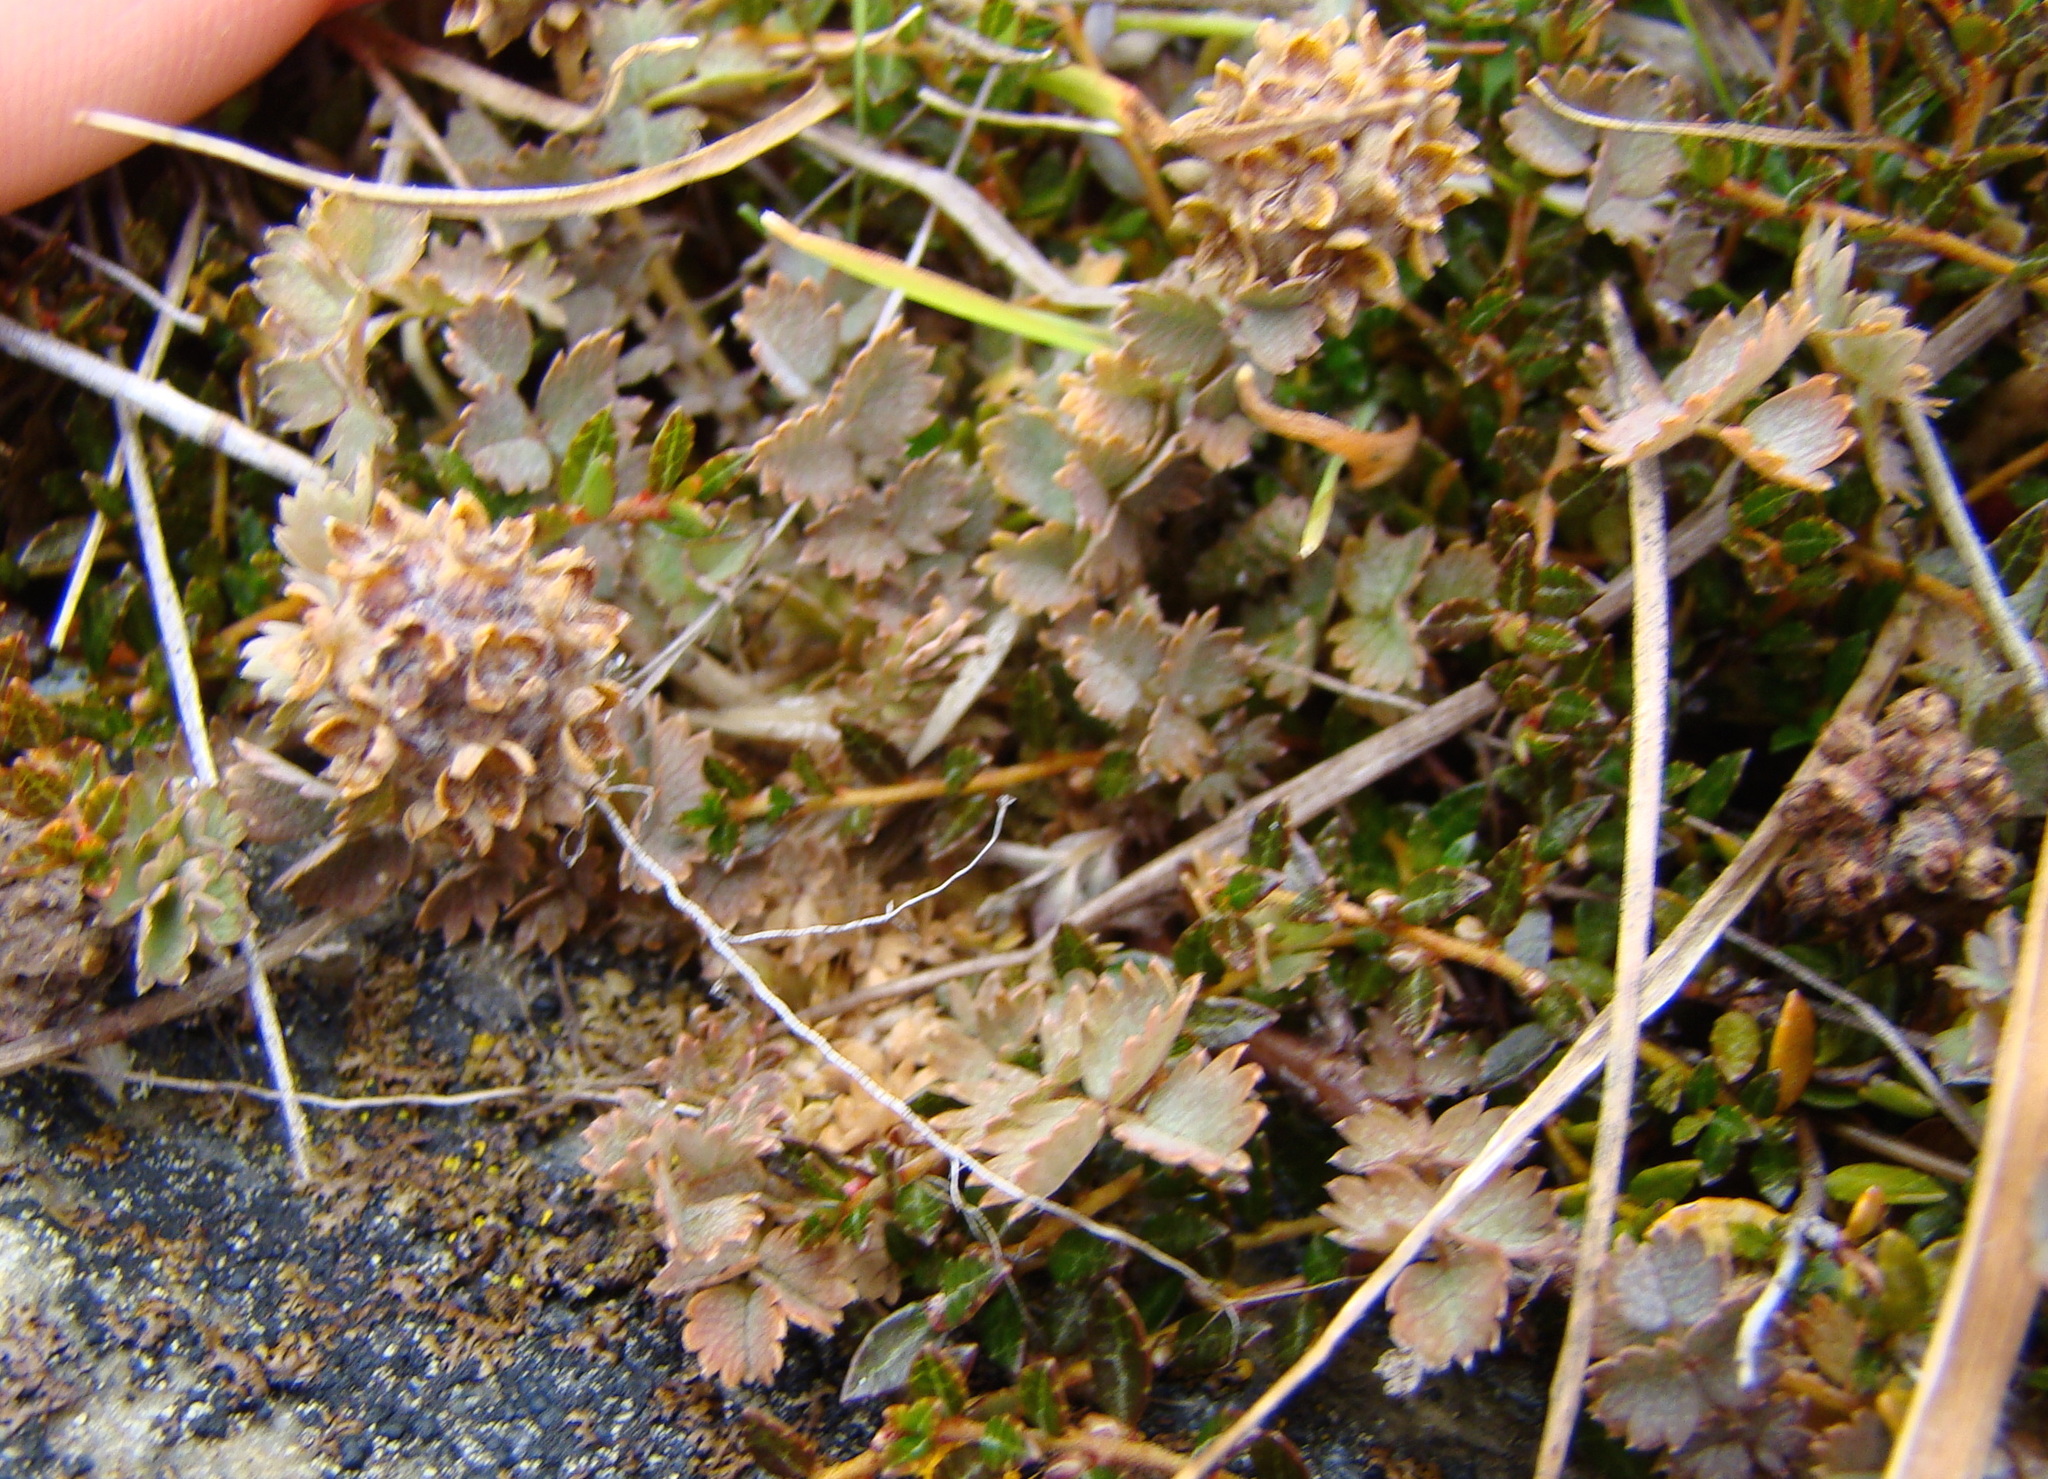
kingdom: Plantae
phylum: Tracheophyta
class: Magnoliopsida
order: Rosales
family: Rosaceae
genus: Acaena
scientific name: Acaena inermis
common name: Spineless acaena
